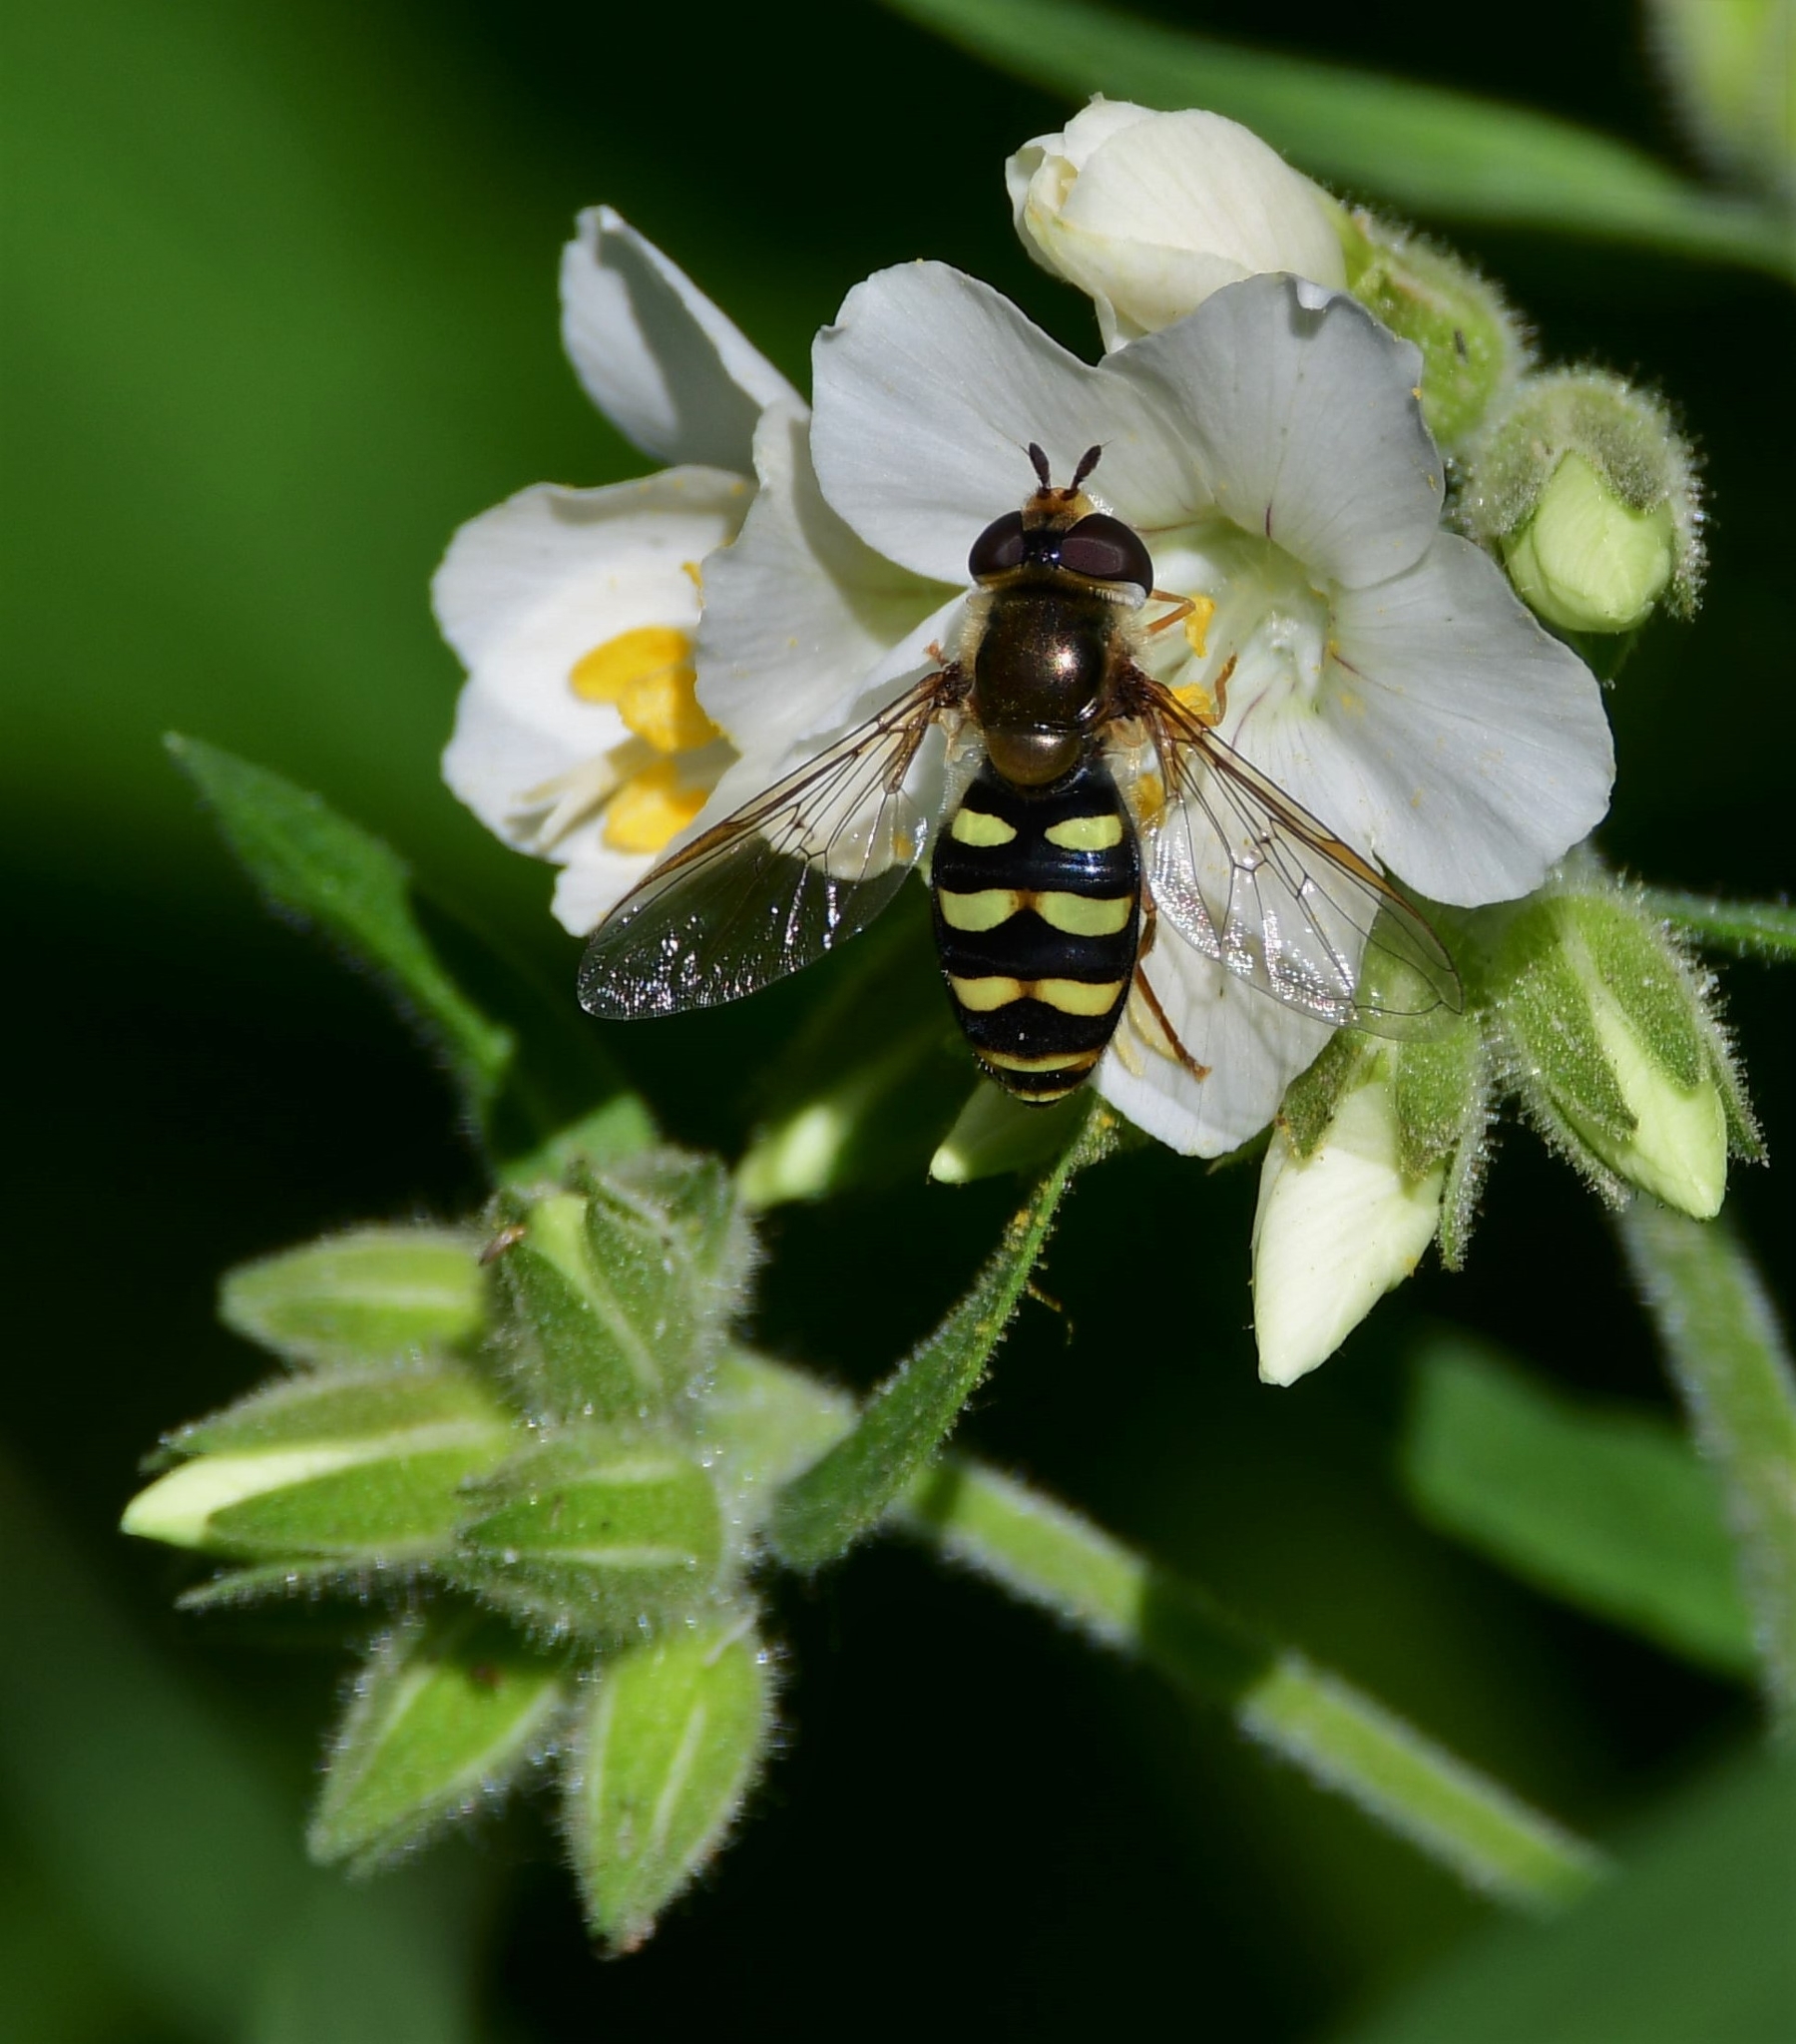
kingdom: Animalia
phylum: Arthropoda
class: Insecta
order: Diptera
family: Syrphidae
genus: Eupeodes
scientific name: Eupeodes fumipennis
